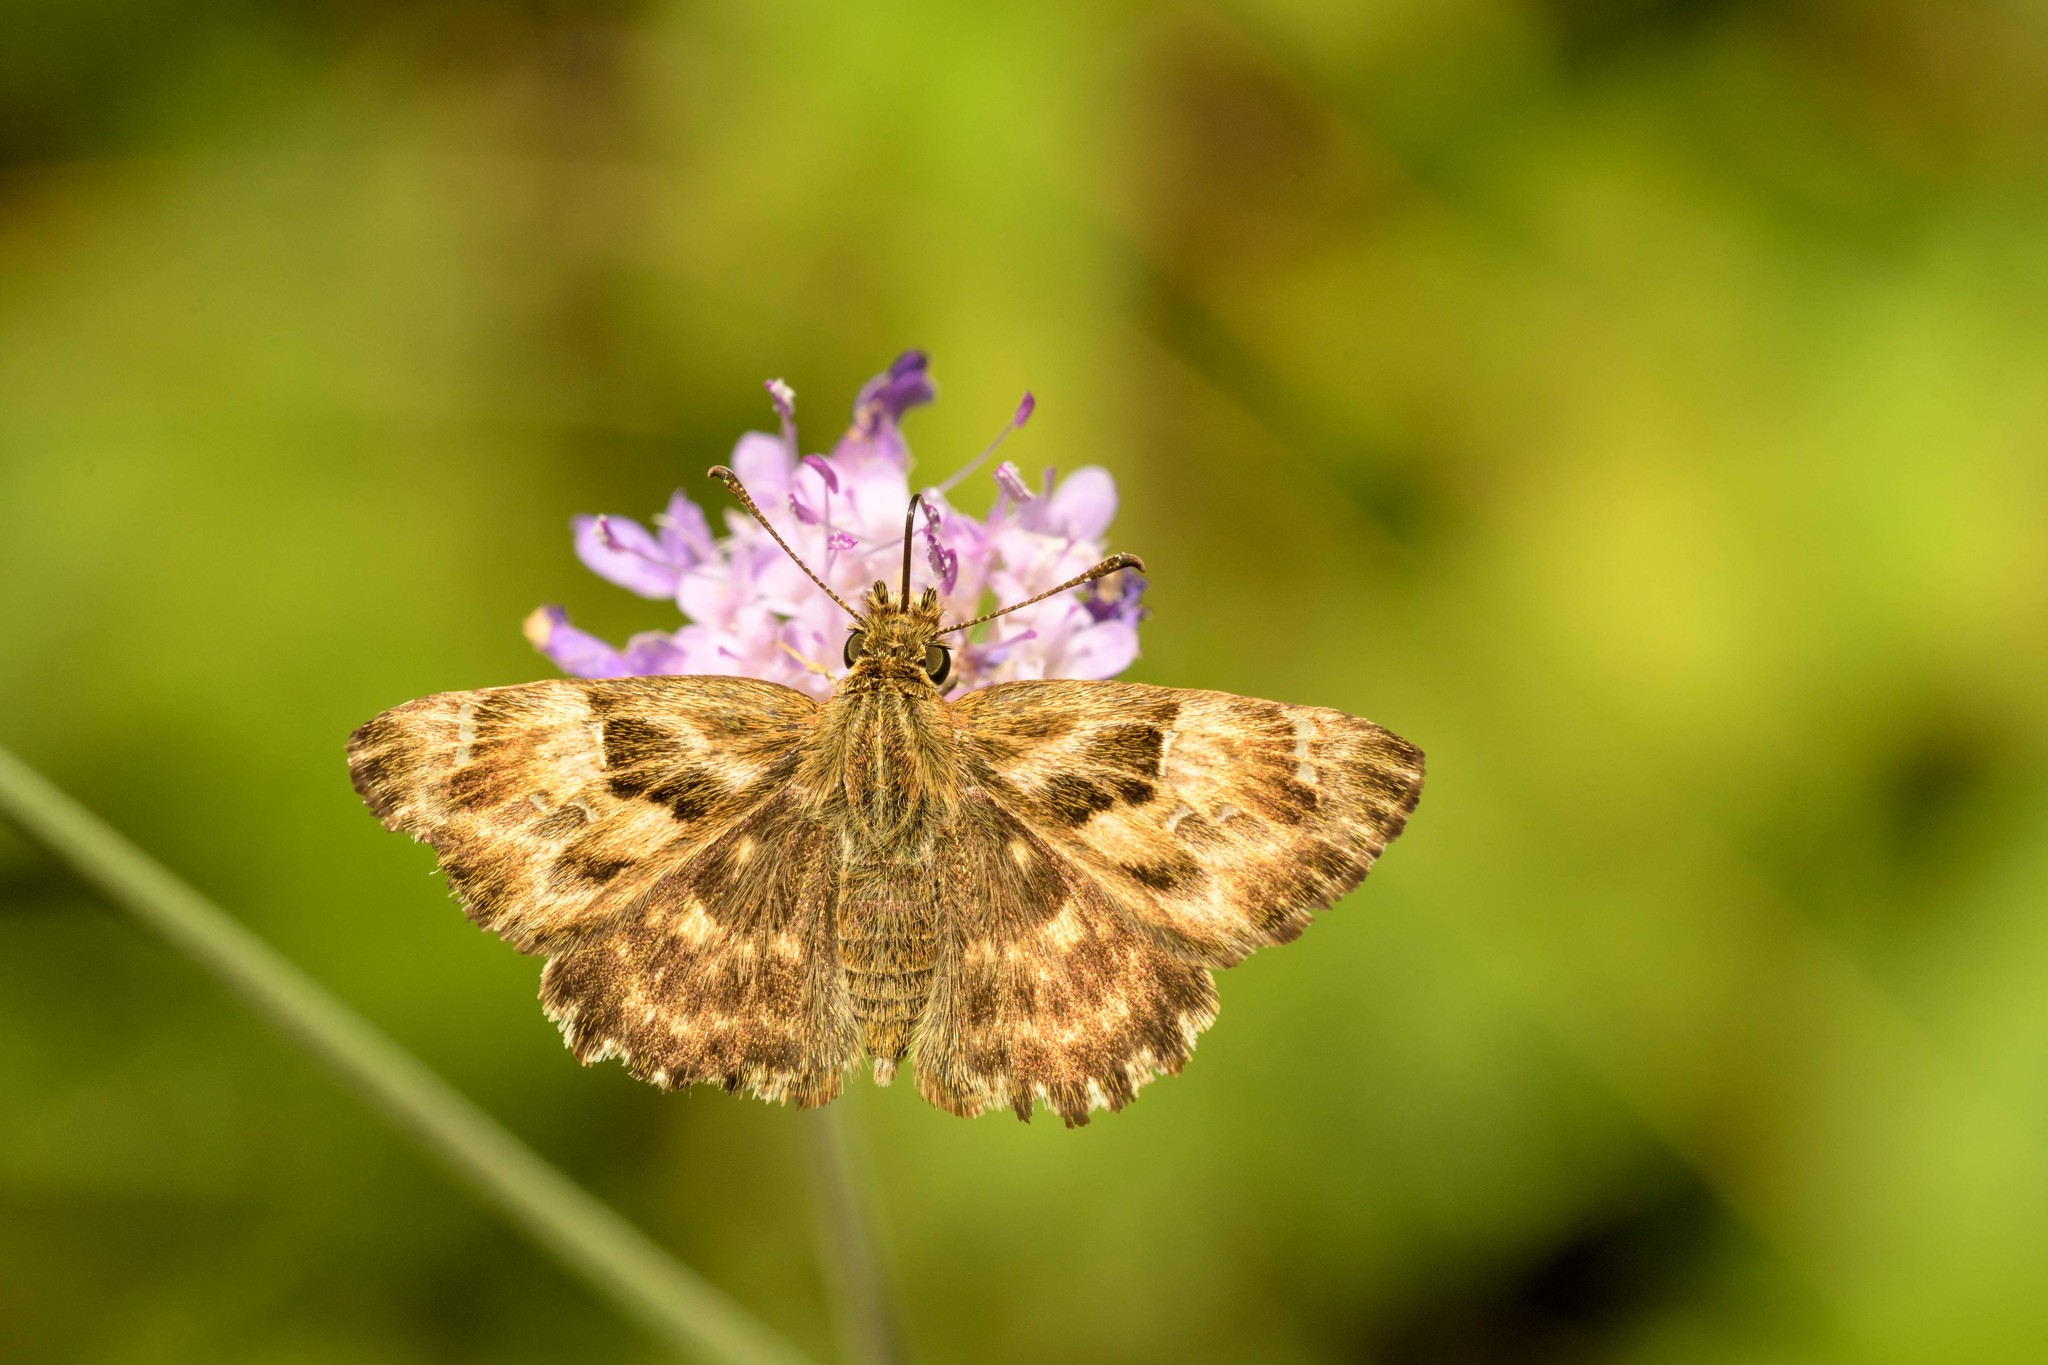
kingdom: Animalia
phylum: Arthropoda
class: Insecta
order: Lepidoptera
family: Hesperiidae
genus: Carcharodus
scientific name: Carcharodus alceae
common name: Mallow skipper
